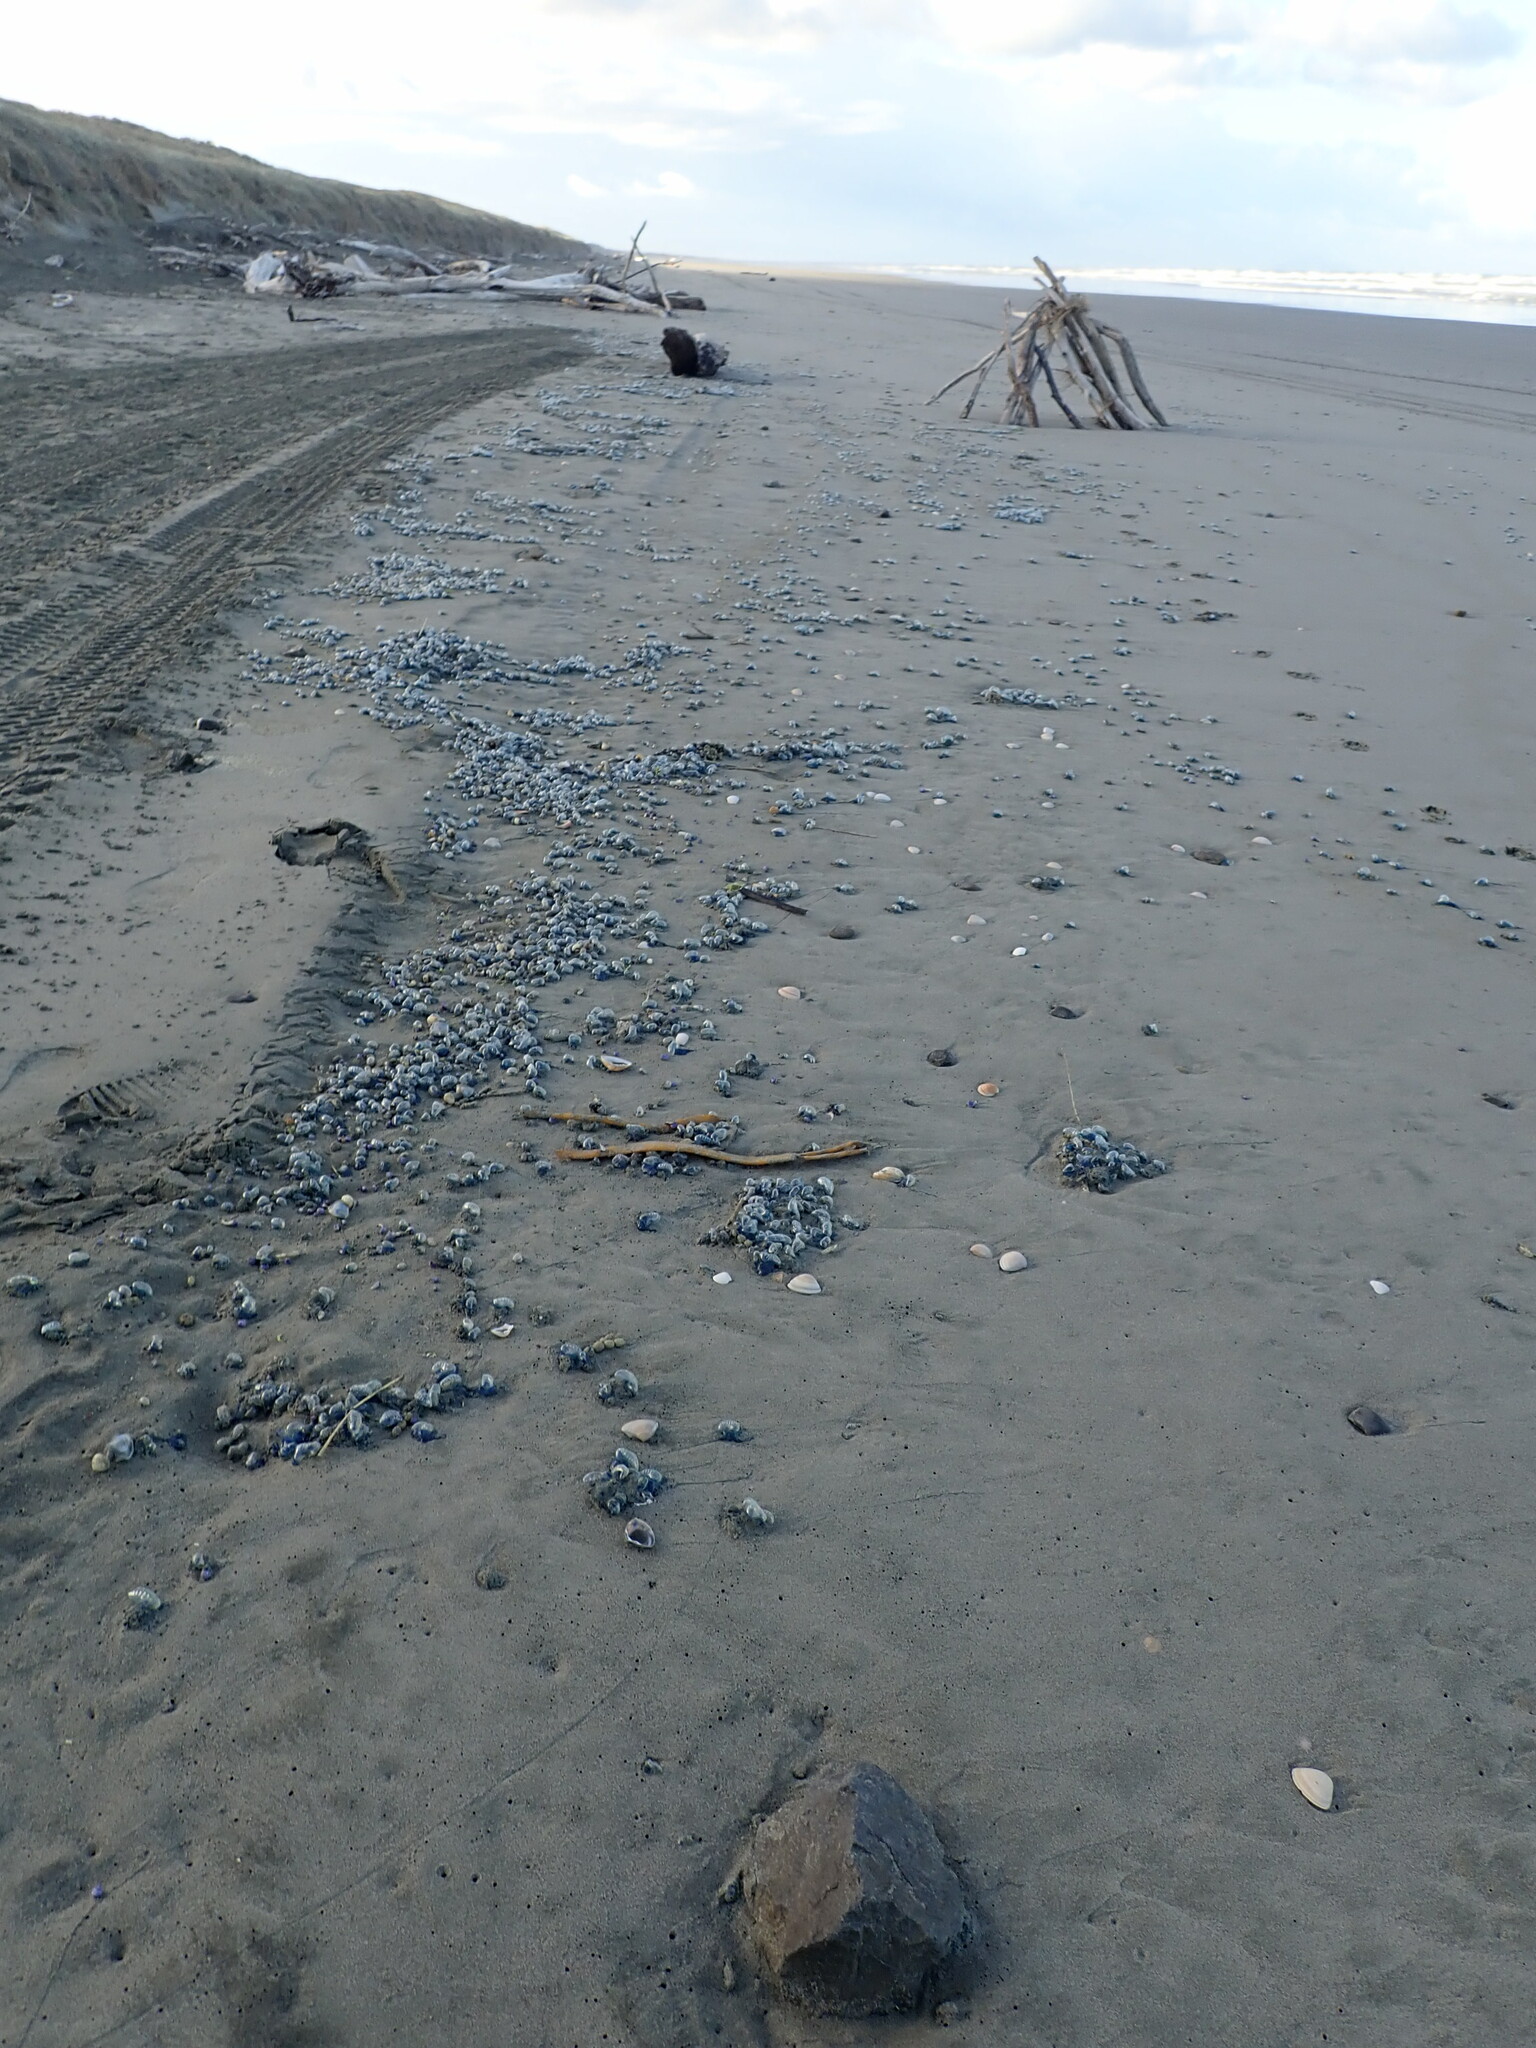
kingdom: Animalia
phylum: Cnidaria
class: Hydrozoa
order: Siphonophorae
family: Physaliidae
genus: Physalia
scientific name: Physalia physalis
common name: Portuguese man-of-war
